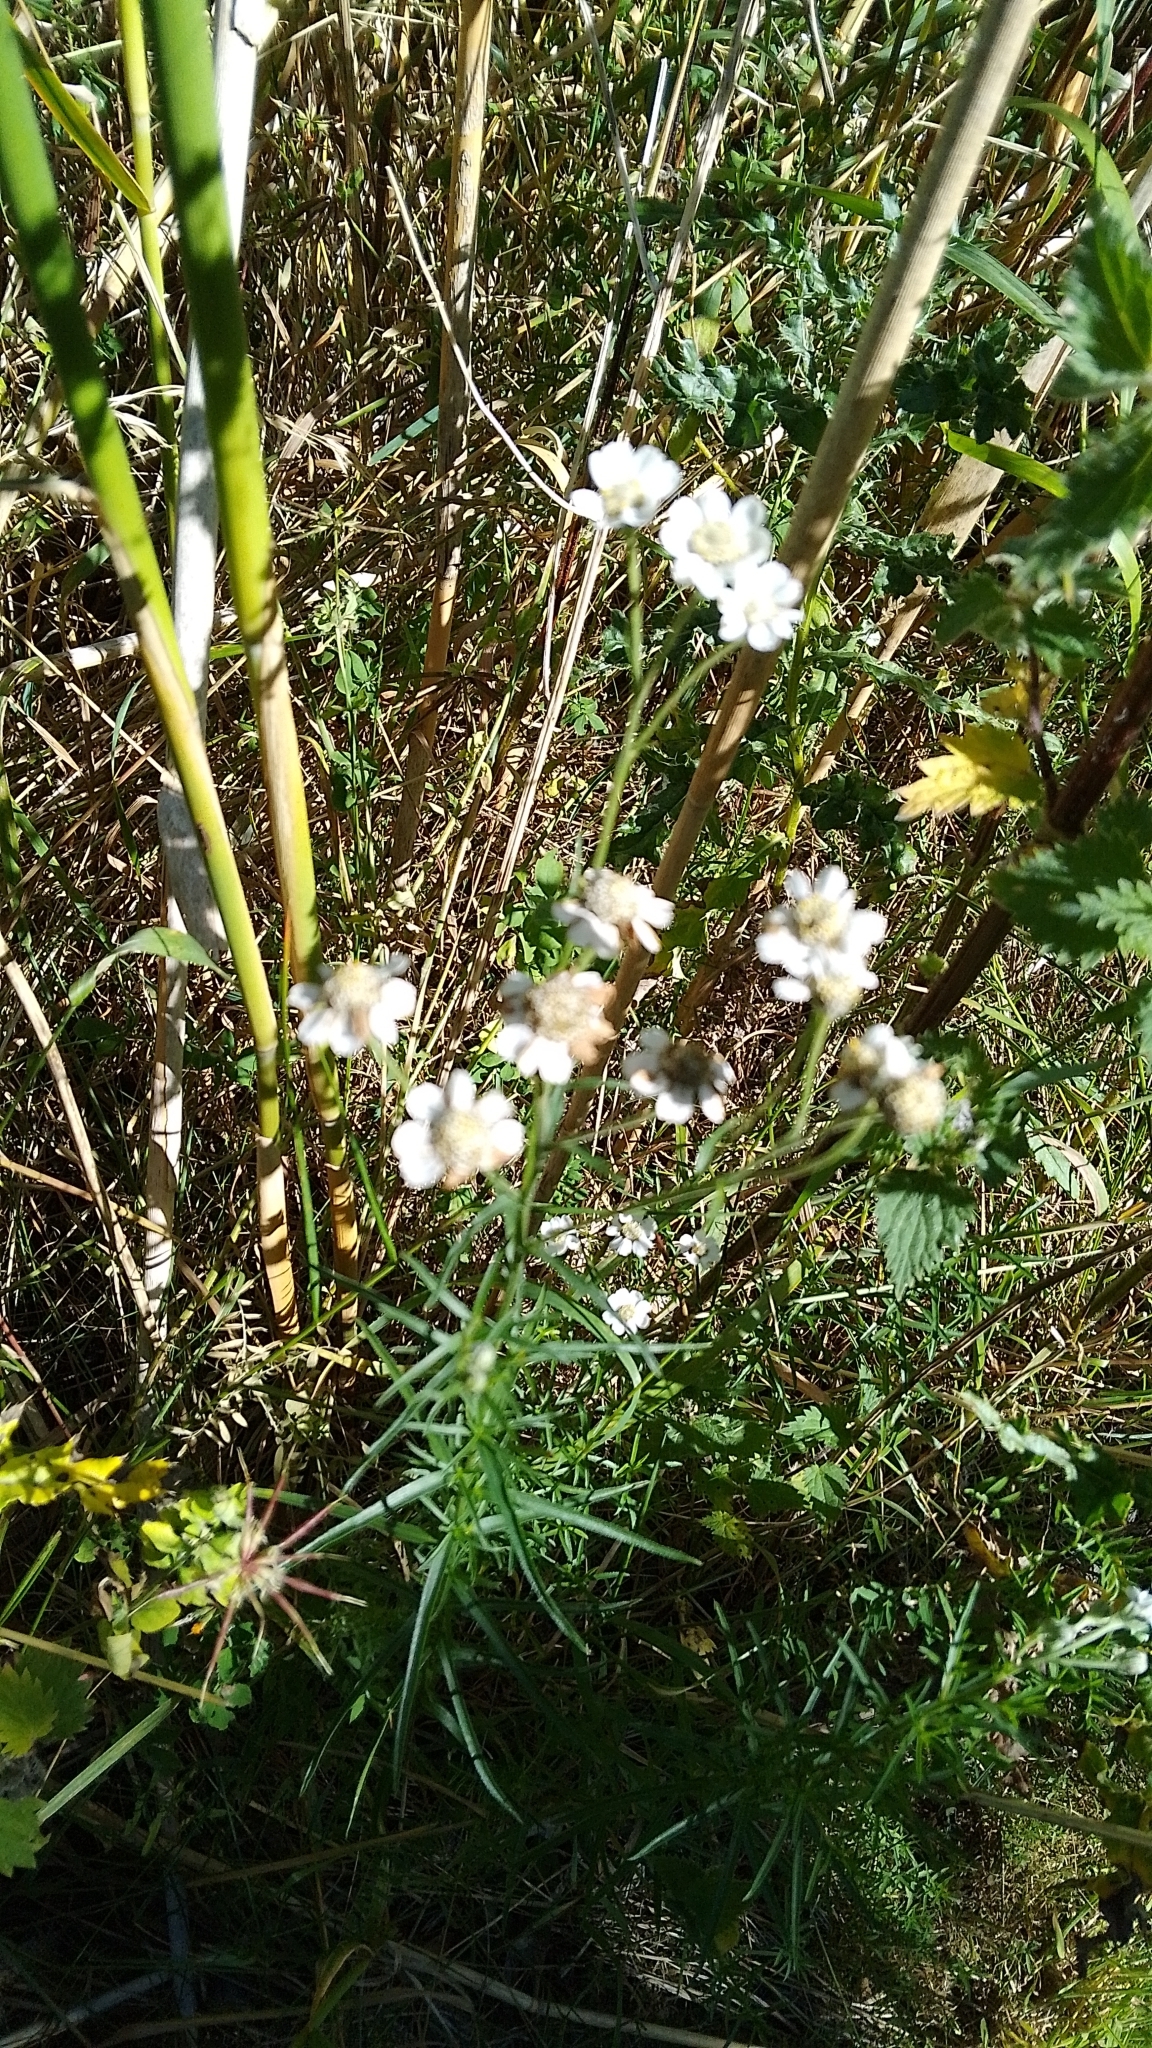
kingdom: Plantae
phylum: Tracheophyta
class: Magnoliopsida
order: Asterales
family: Asteraceae
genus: Achillea
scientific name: Achillea ptarmica
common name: Sneezeweed
